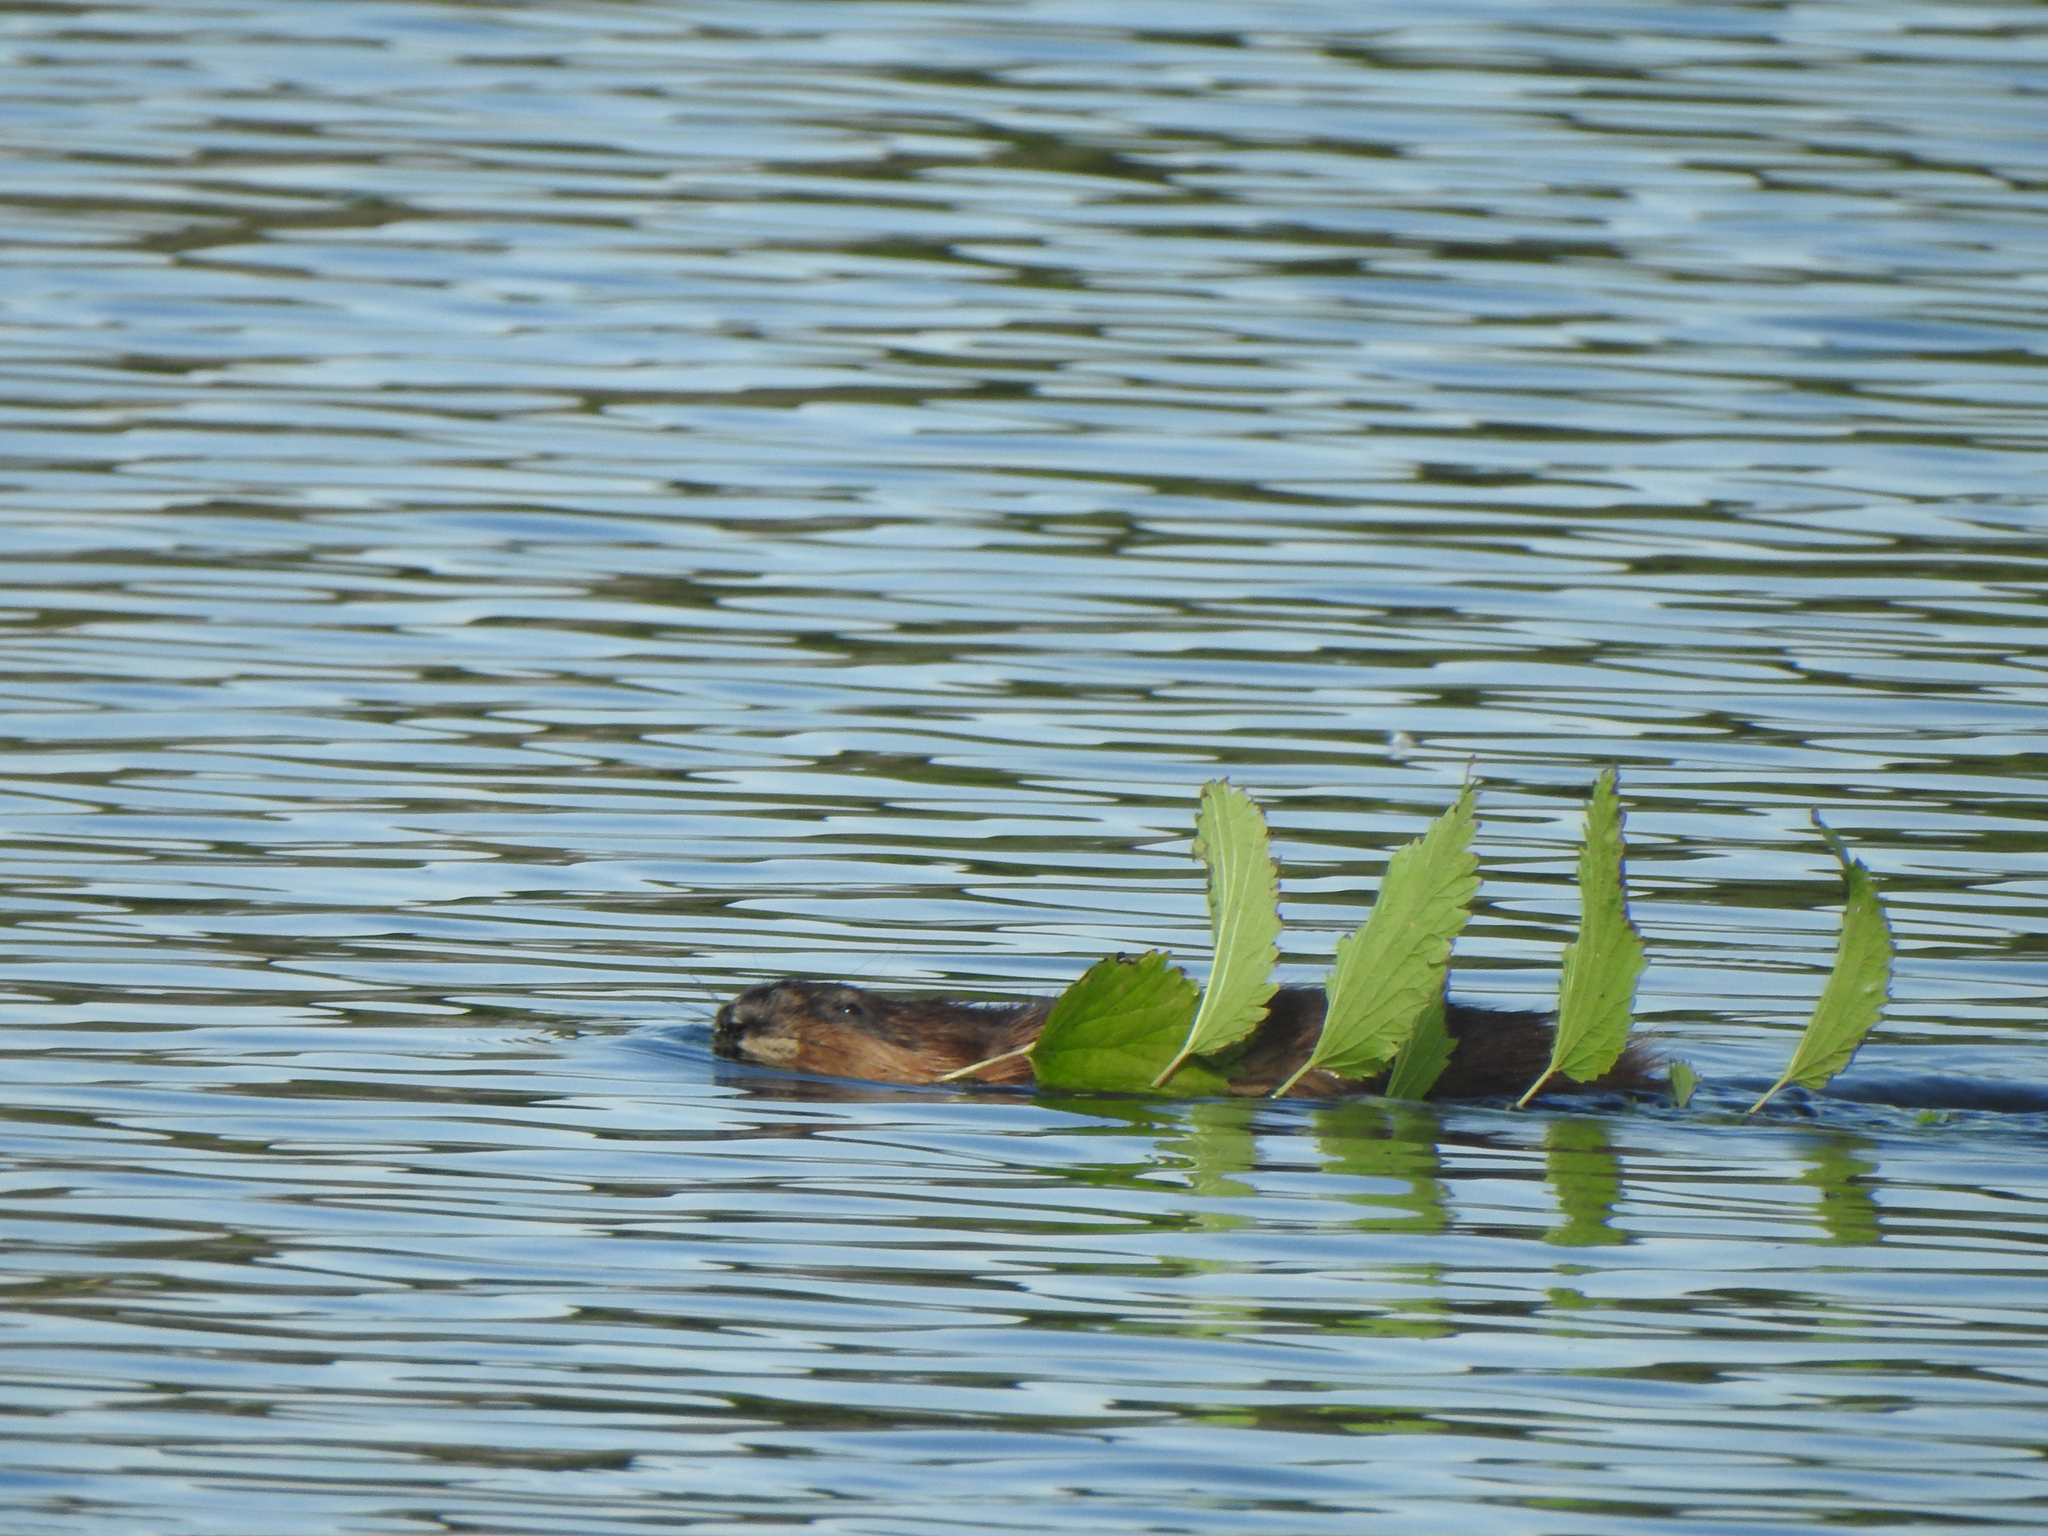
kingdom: Animalia
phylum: Chordata
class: Mammalia
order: Rodentia
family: Cricetidae
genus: Ondatra
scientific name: Ondatra zibethicus
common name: Muskrat
